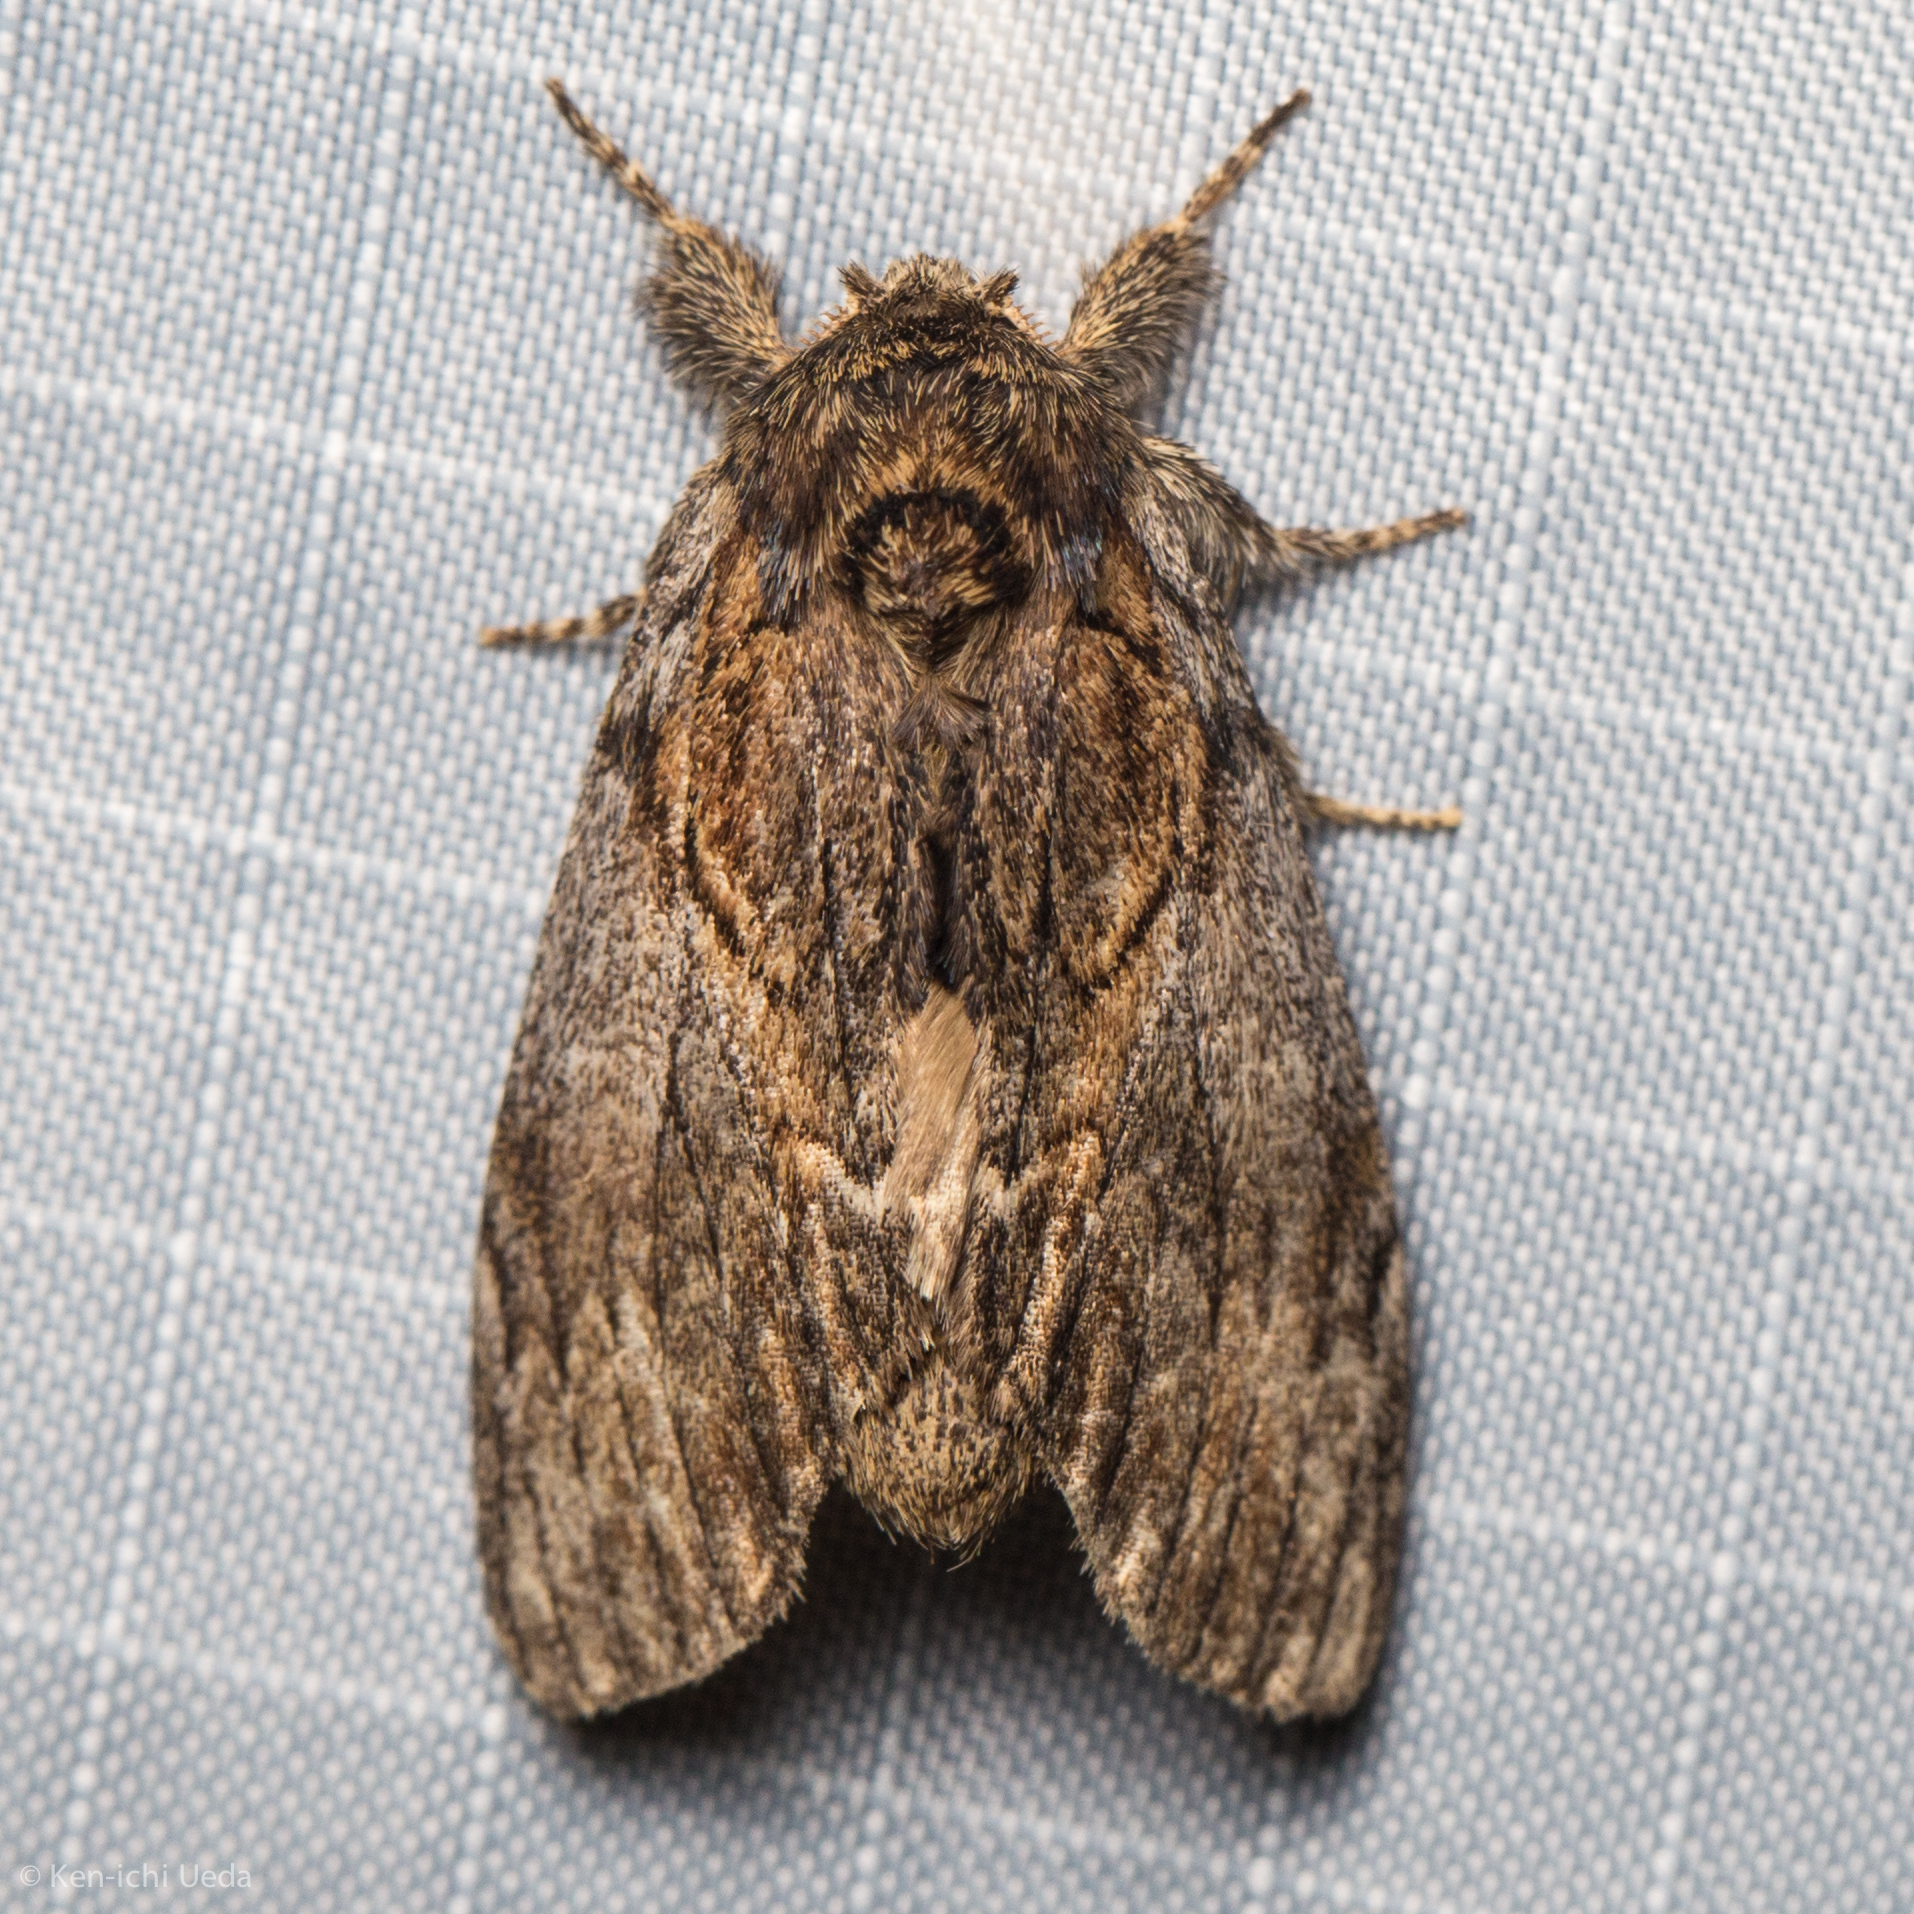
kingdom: Animalia
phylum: Arthropoda
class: Insecta
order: Lepidoptera
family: Notodontidae
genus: Peridea
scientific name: Peridea basitriens
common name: Oval-based prominent
